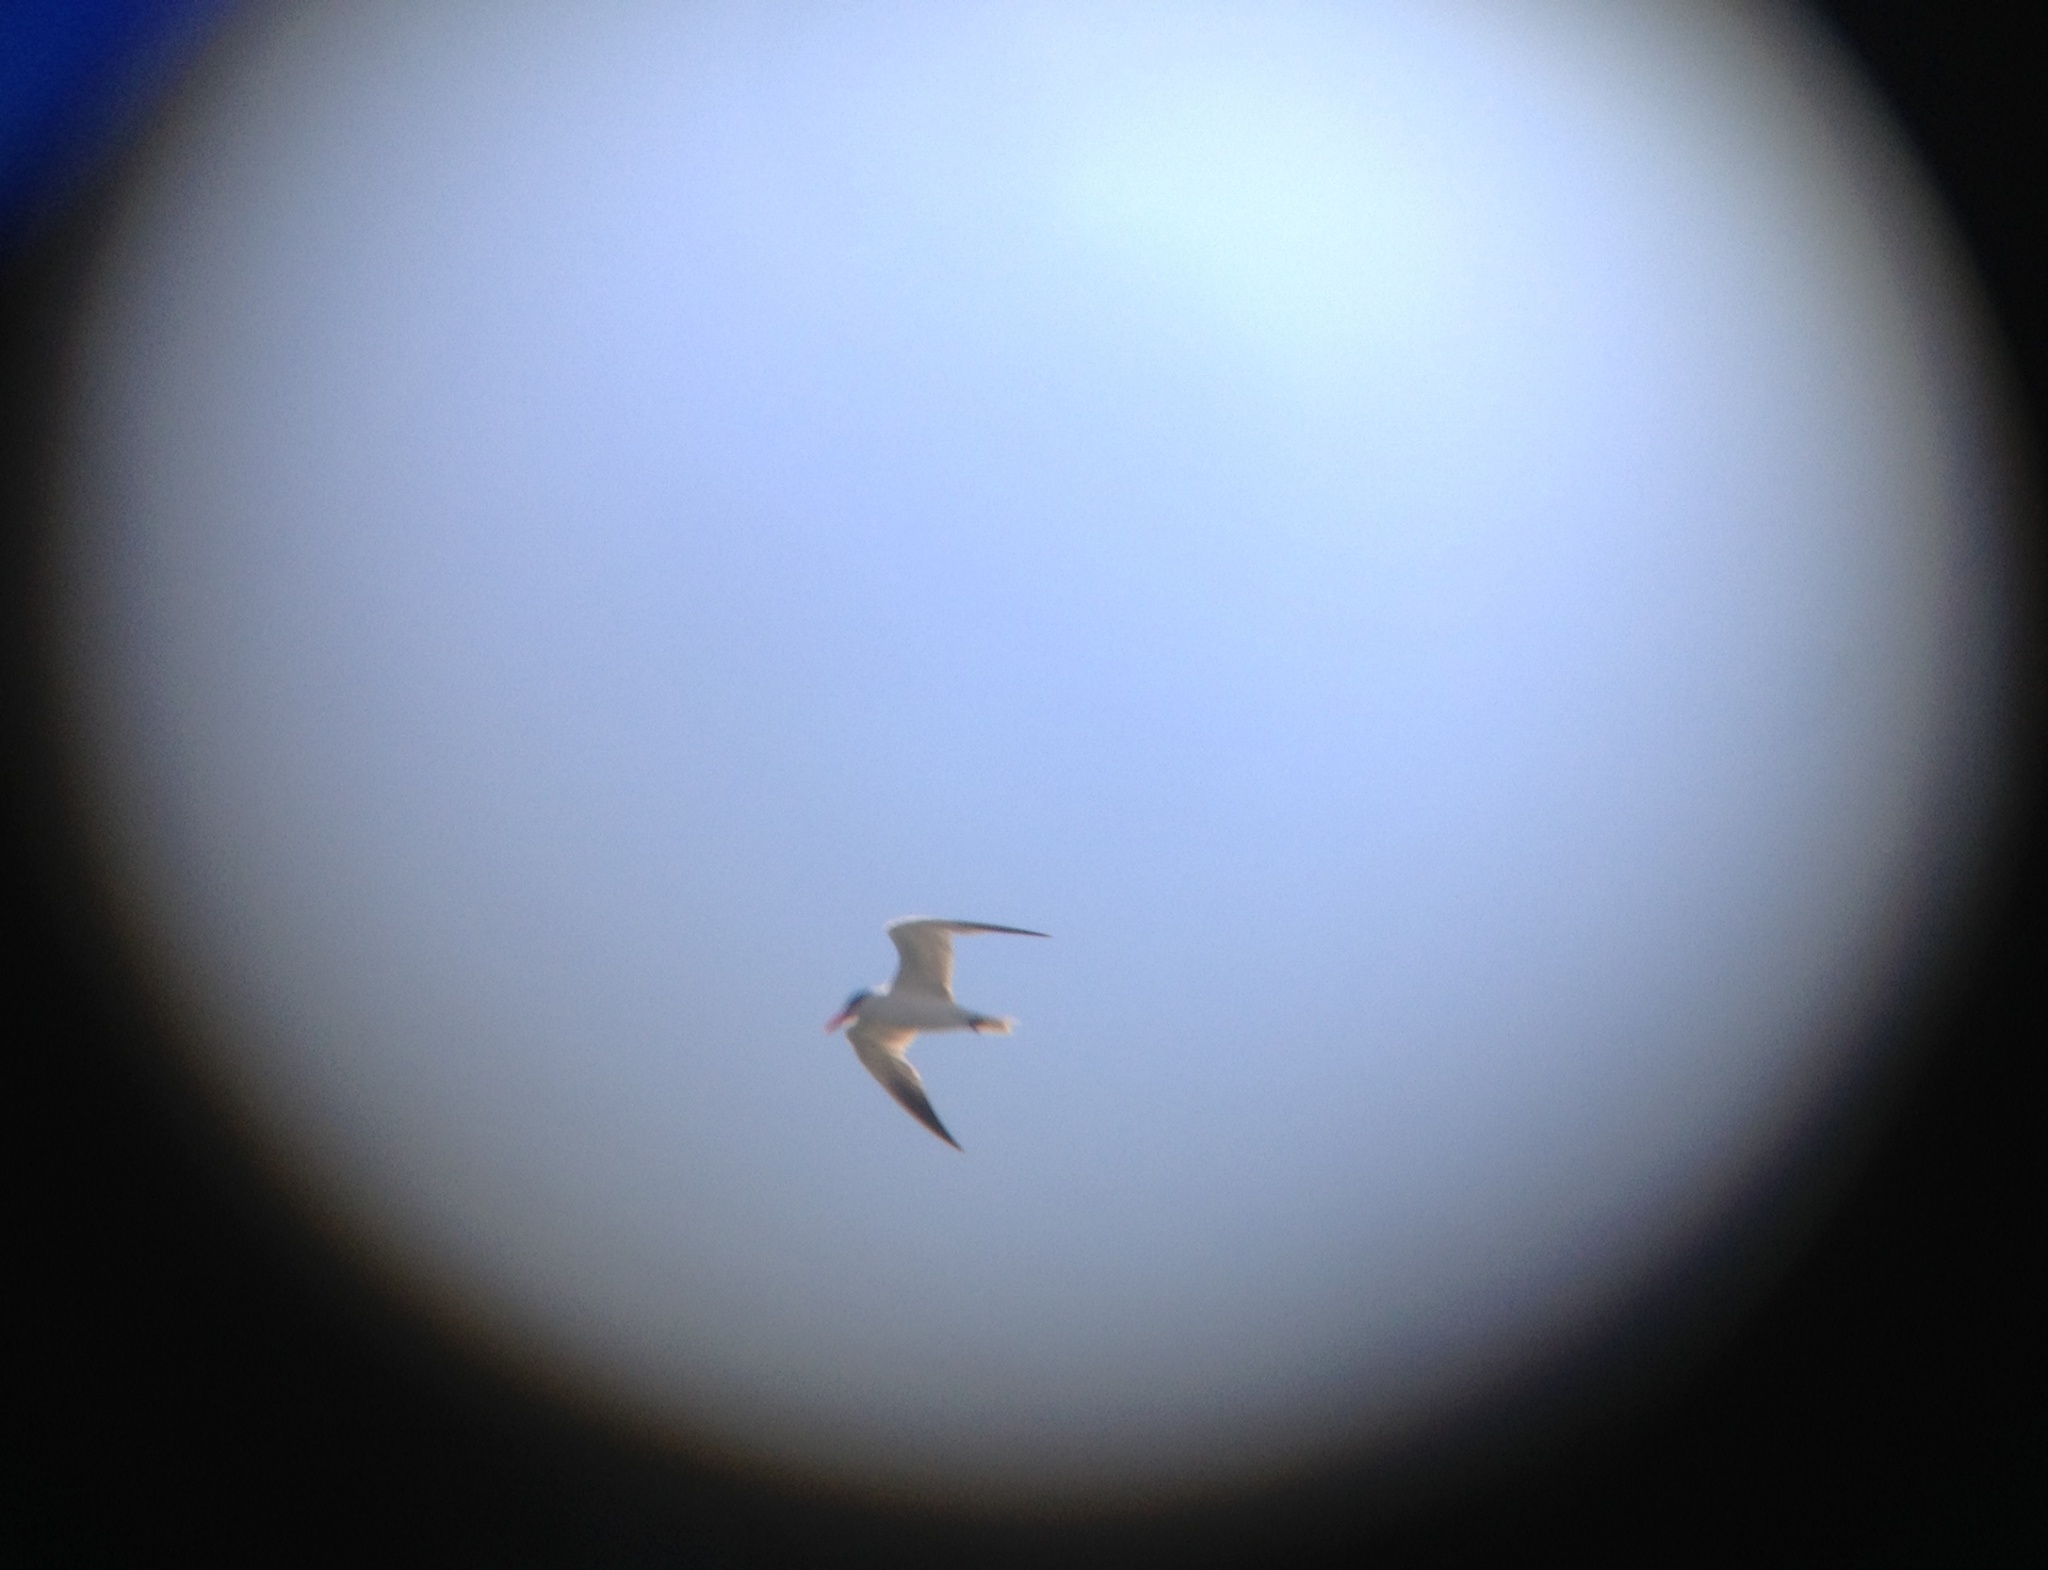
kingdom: Animalia
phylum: Chordata
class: Aves
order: Charadriiformes
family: Laridae
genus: Hydroprogne
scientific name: Hydroprogne caspia
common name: Caspian tern
